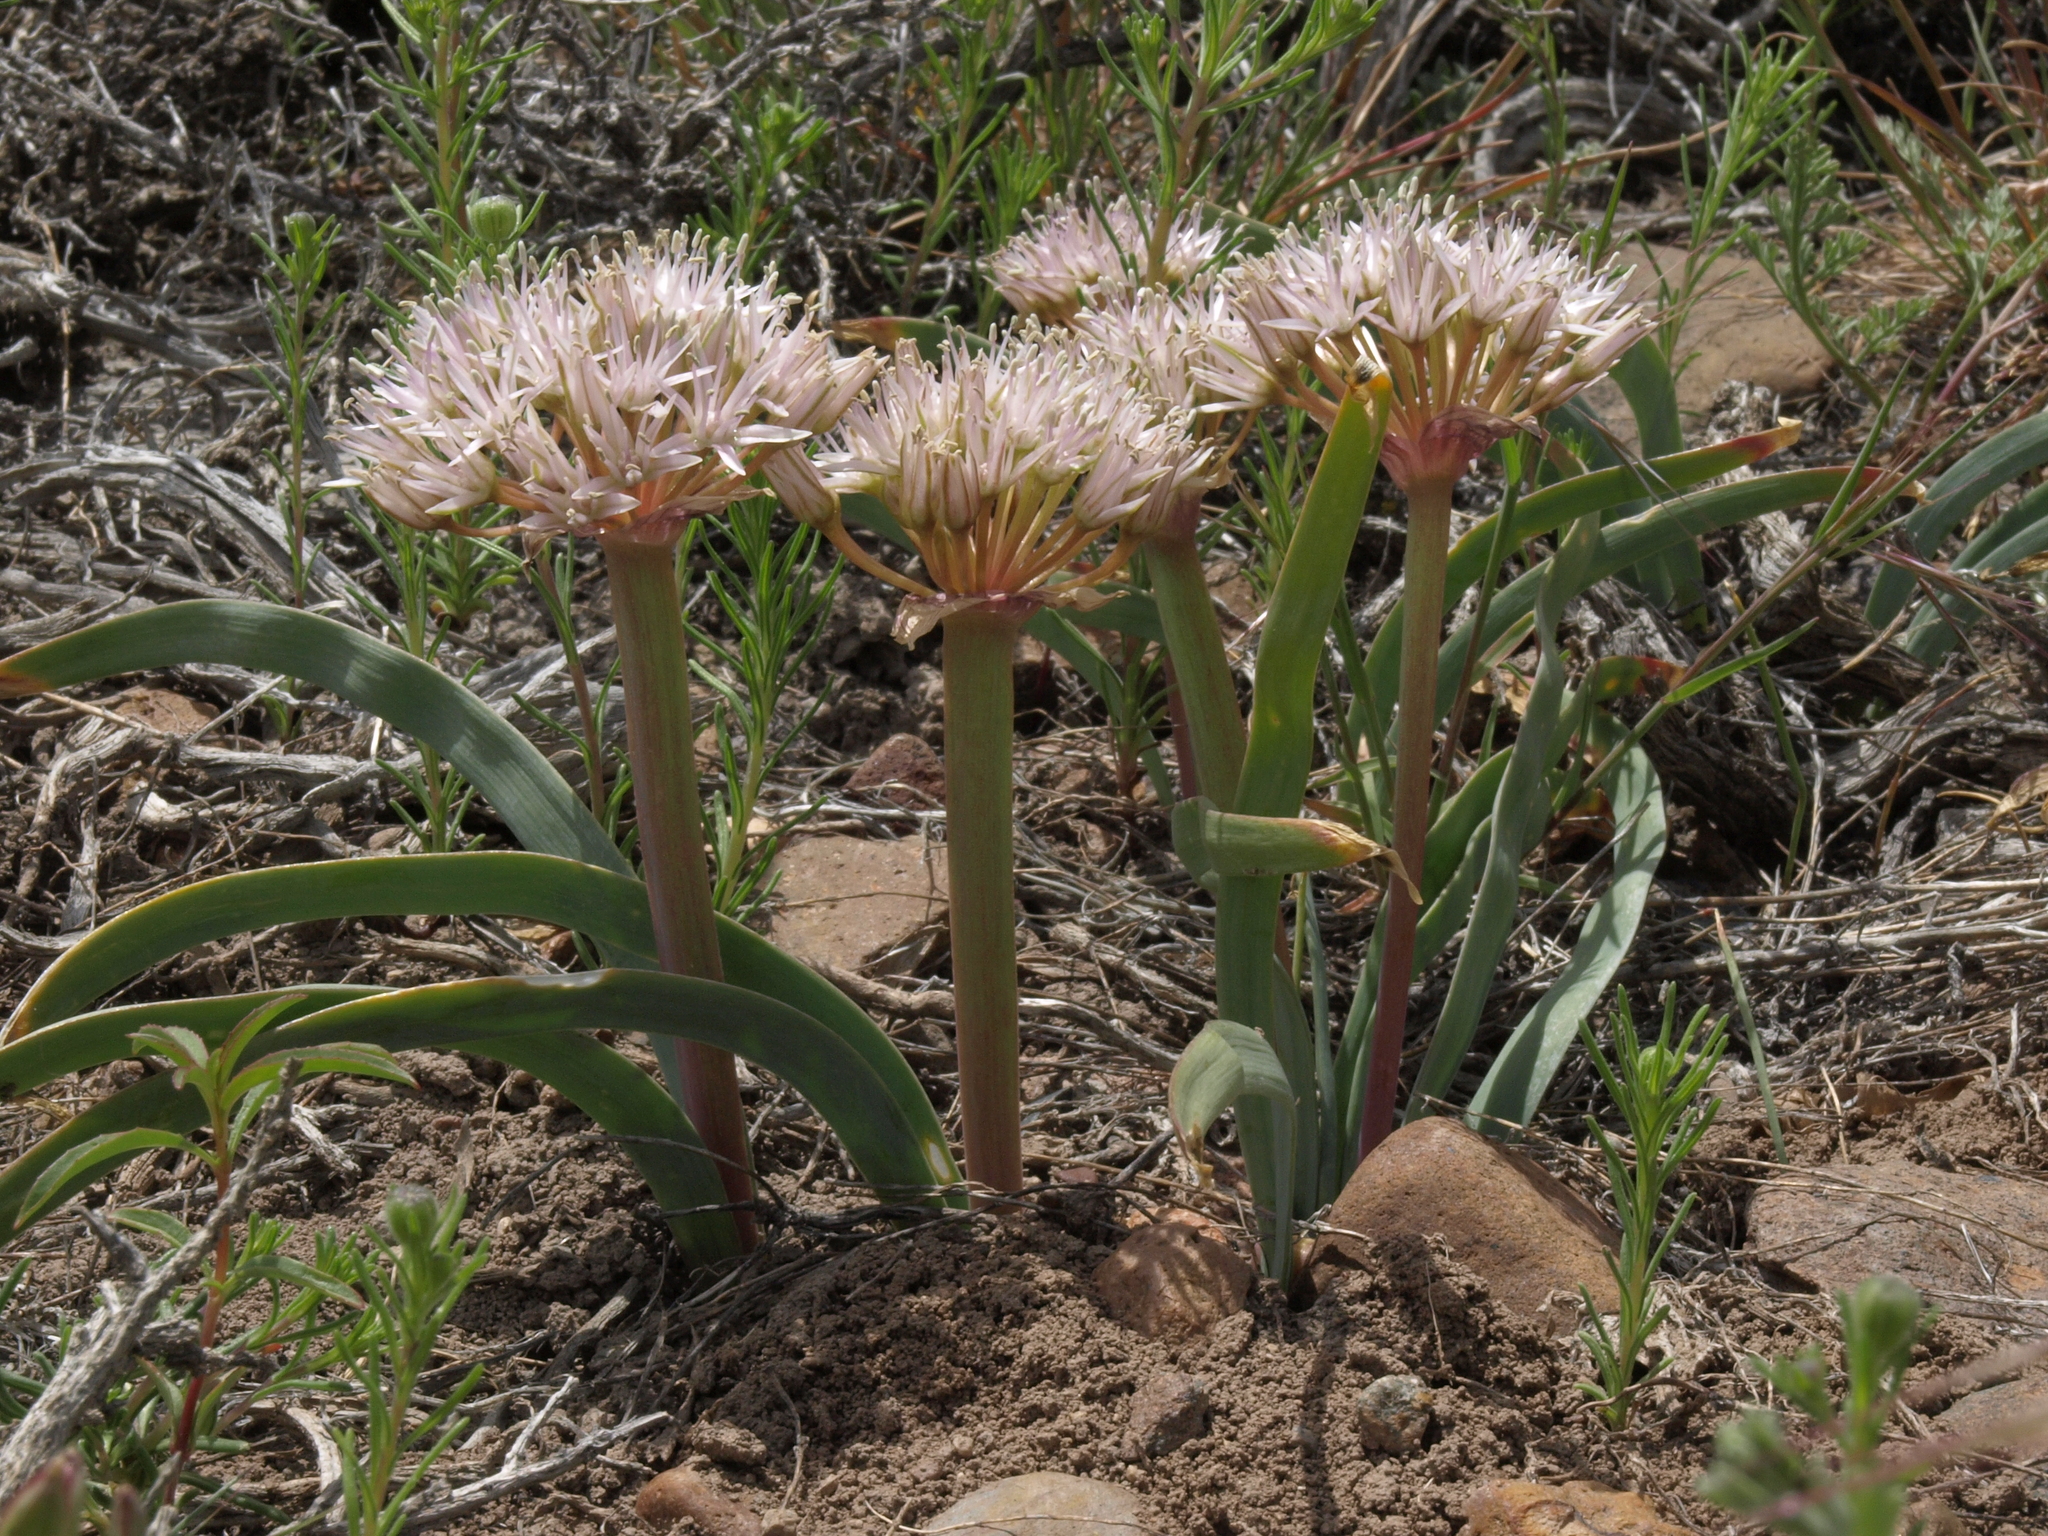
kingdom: Plantae
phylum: Tracheophyta
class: Liliopsida
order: Asparagales
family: Amaryllidaceae
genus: Allium
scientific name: Allium anceps
